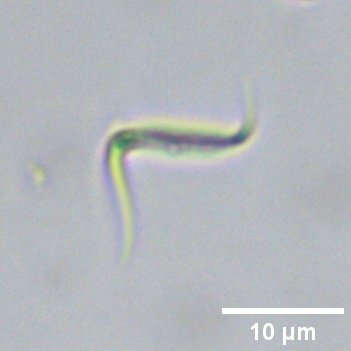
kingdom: Plantae
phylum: Chlorophyta
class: Chlorophyceae
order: Sphaeropleales
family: Selenastraceae
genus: Monoraphidium
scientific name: Monoraphidium contortum
